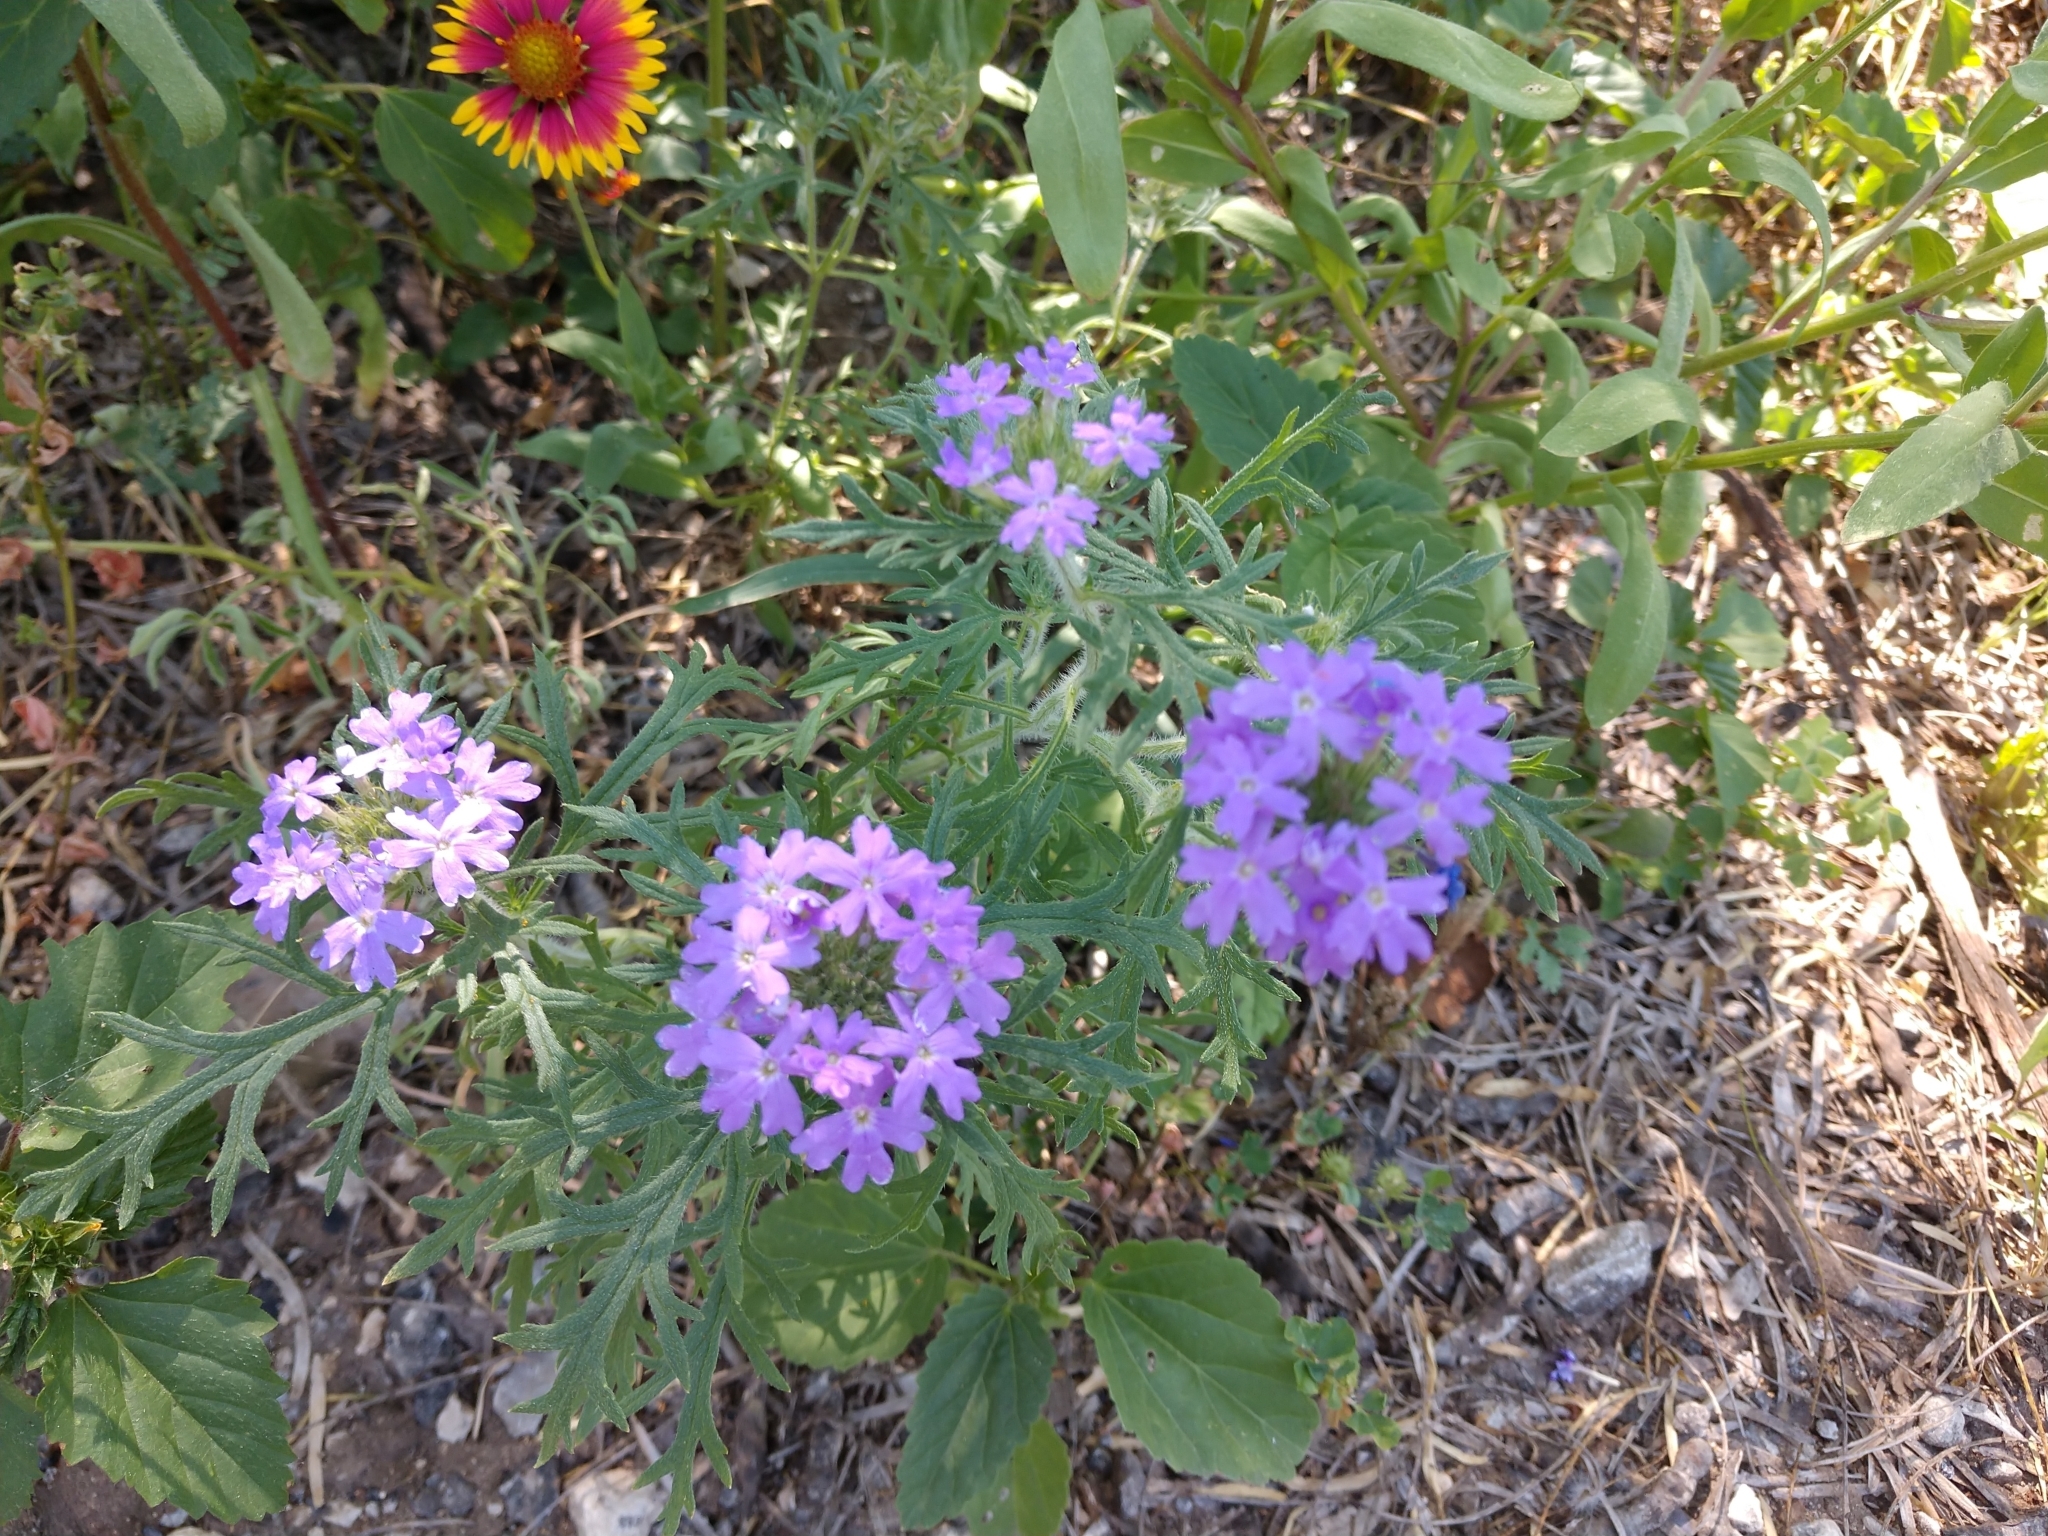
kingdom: Plantae
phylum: Tracheophyta
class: Magnoliopsida
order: Lamiales
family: Verbenaceae
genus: Verbena
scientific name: Verbena bipinnatifida
